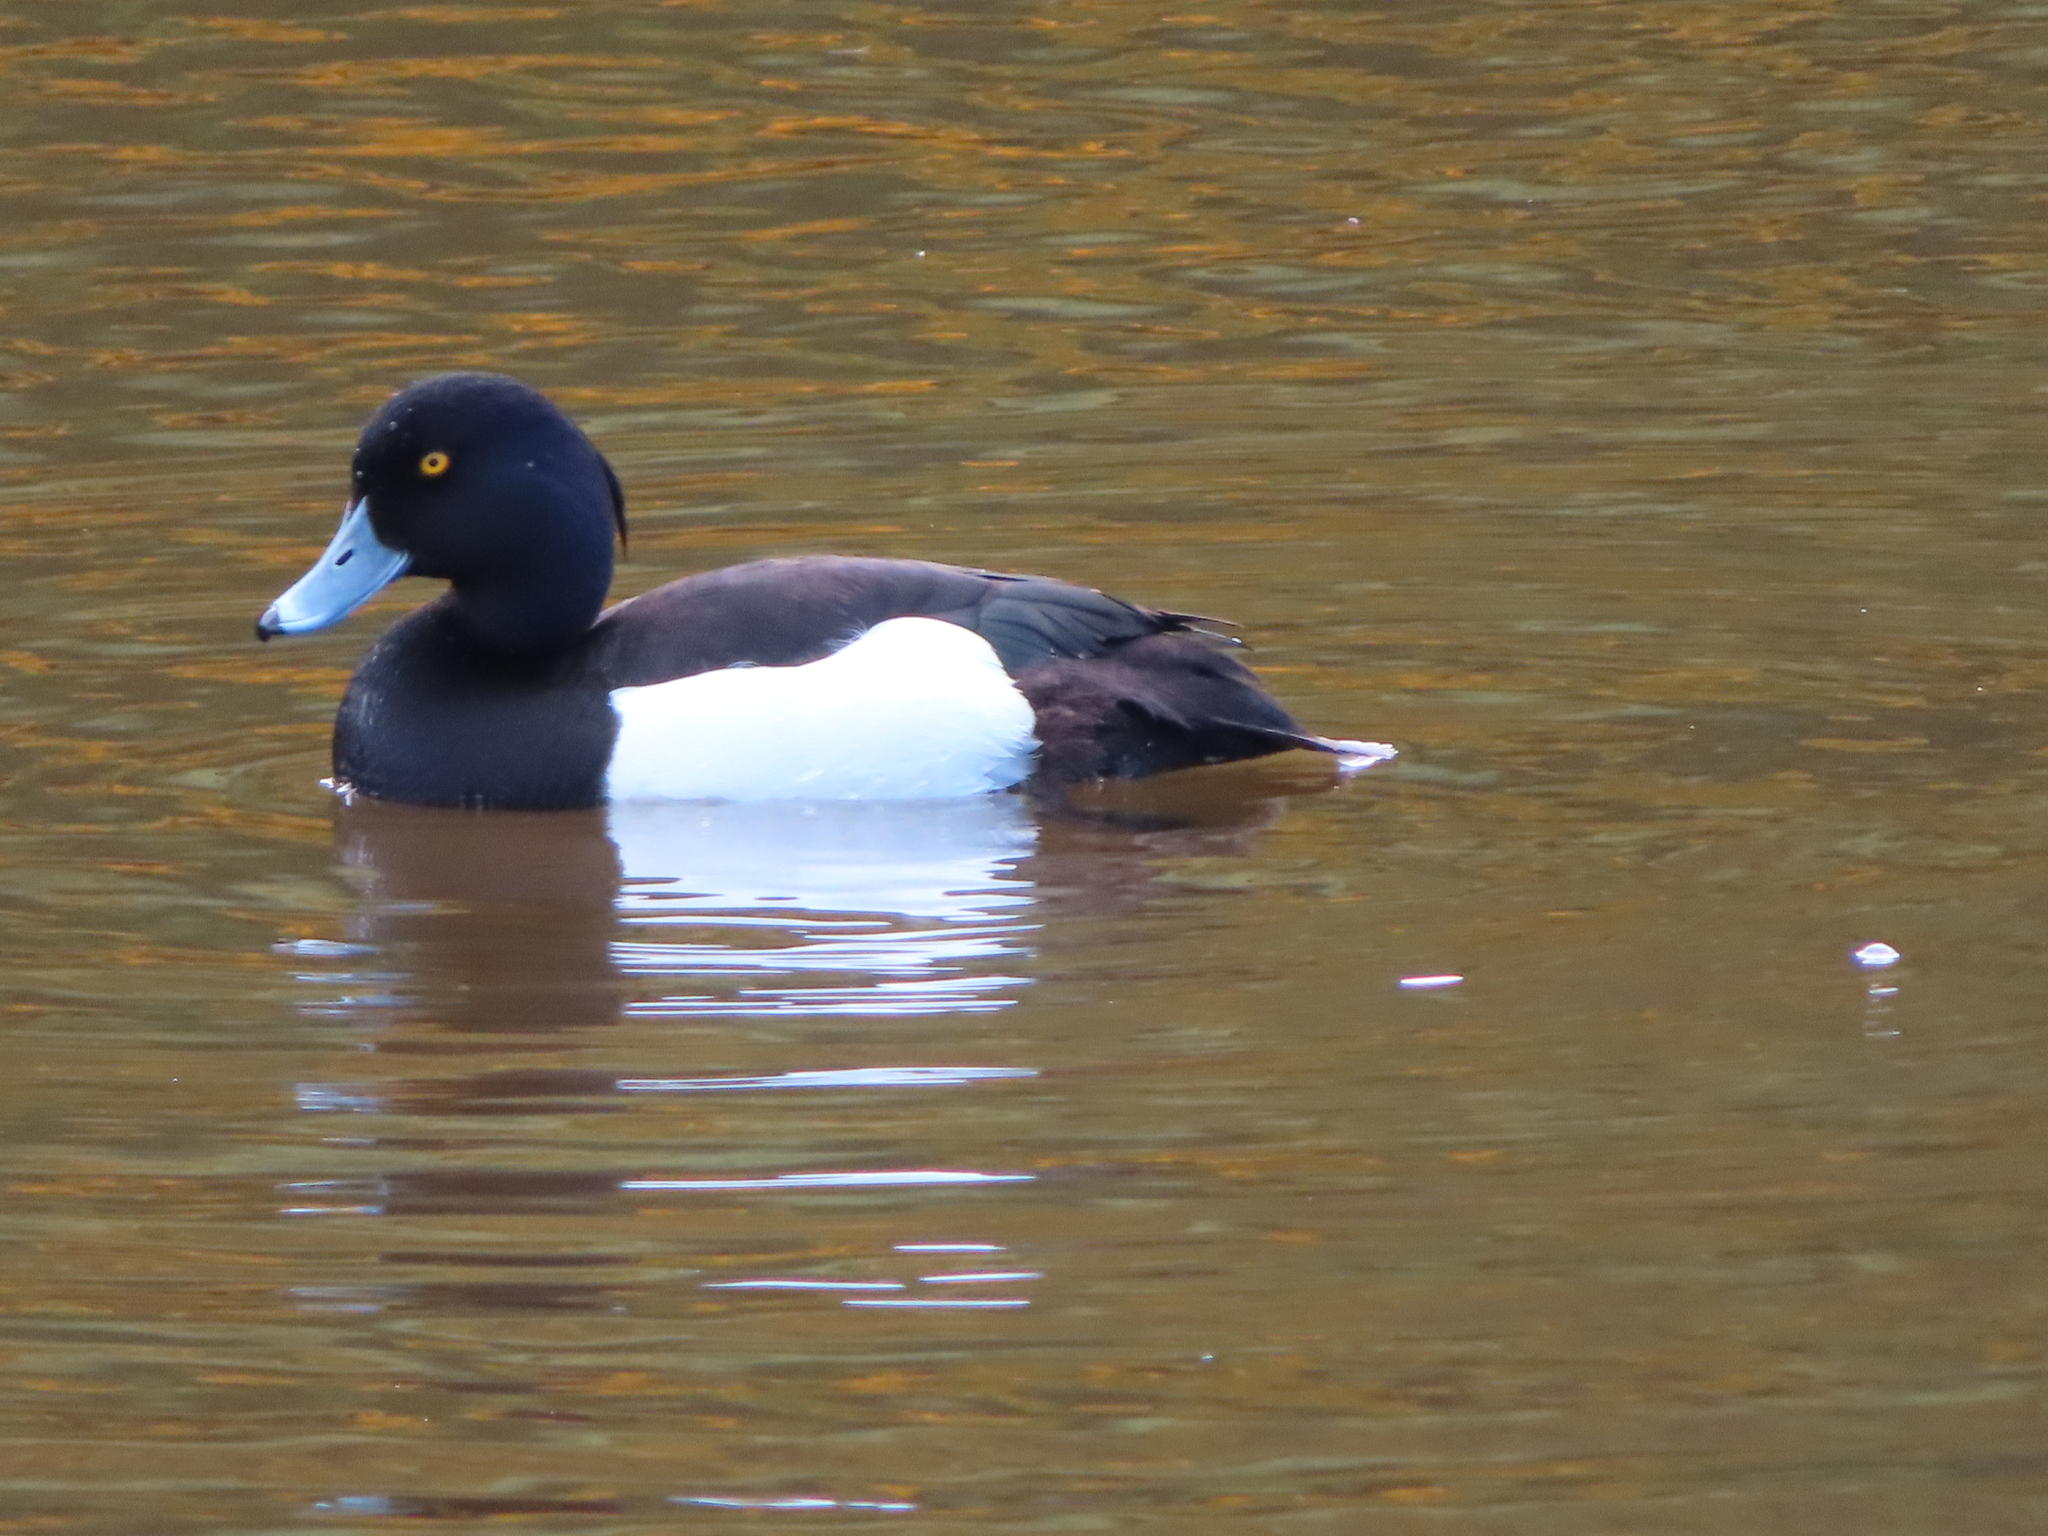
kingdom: Animalia
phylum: Chordata
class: Aves
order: Anseriformes
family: Anatidae
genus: Aythya
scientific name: Aythya fuligula
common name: Tufted duck
